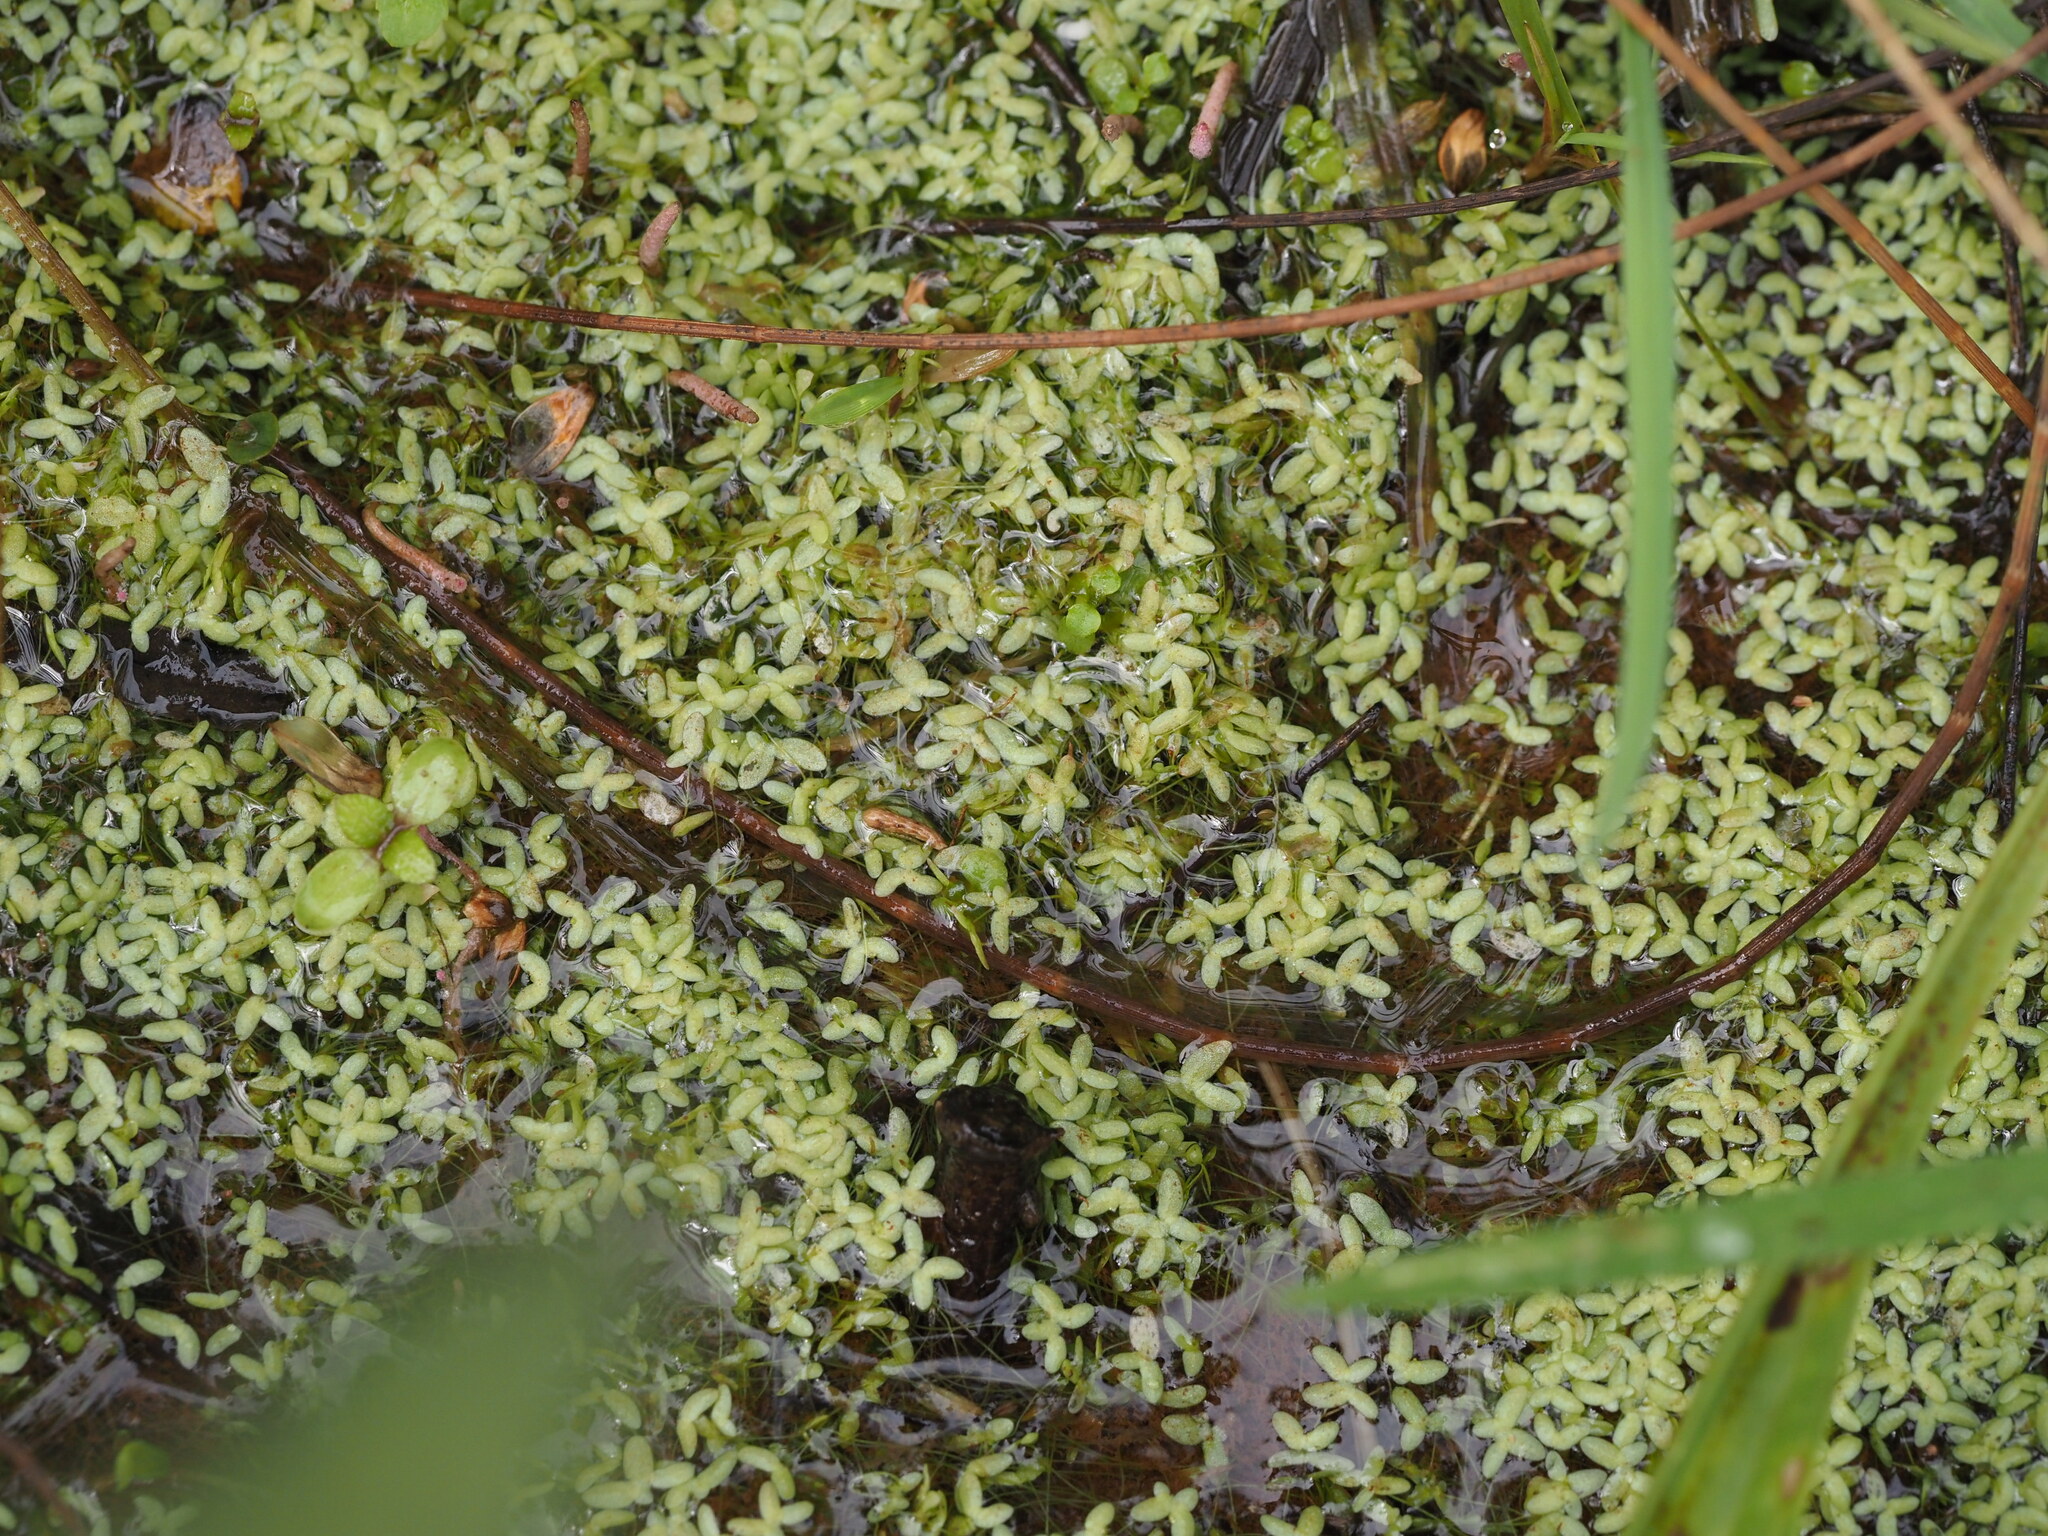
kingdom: Plantae
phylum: Tracheophyta
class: Liliopsida
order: Alismatales
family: Araceae
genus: Lemna
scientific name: Lemna aequinoctialis
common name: Duckweed
